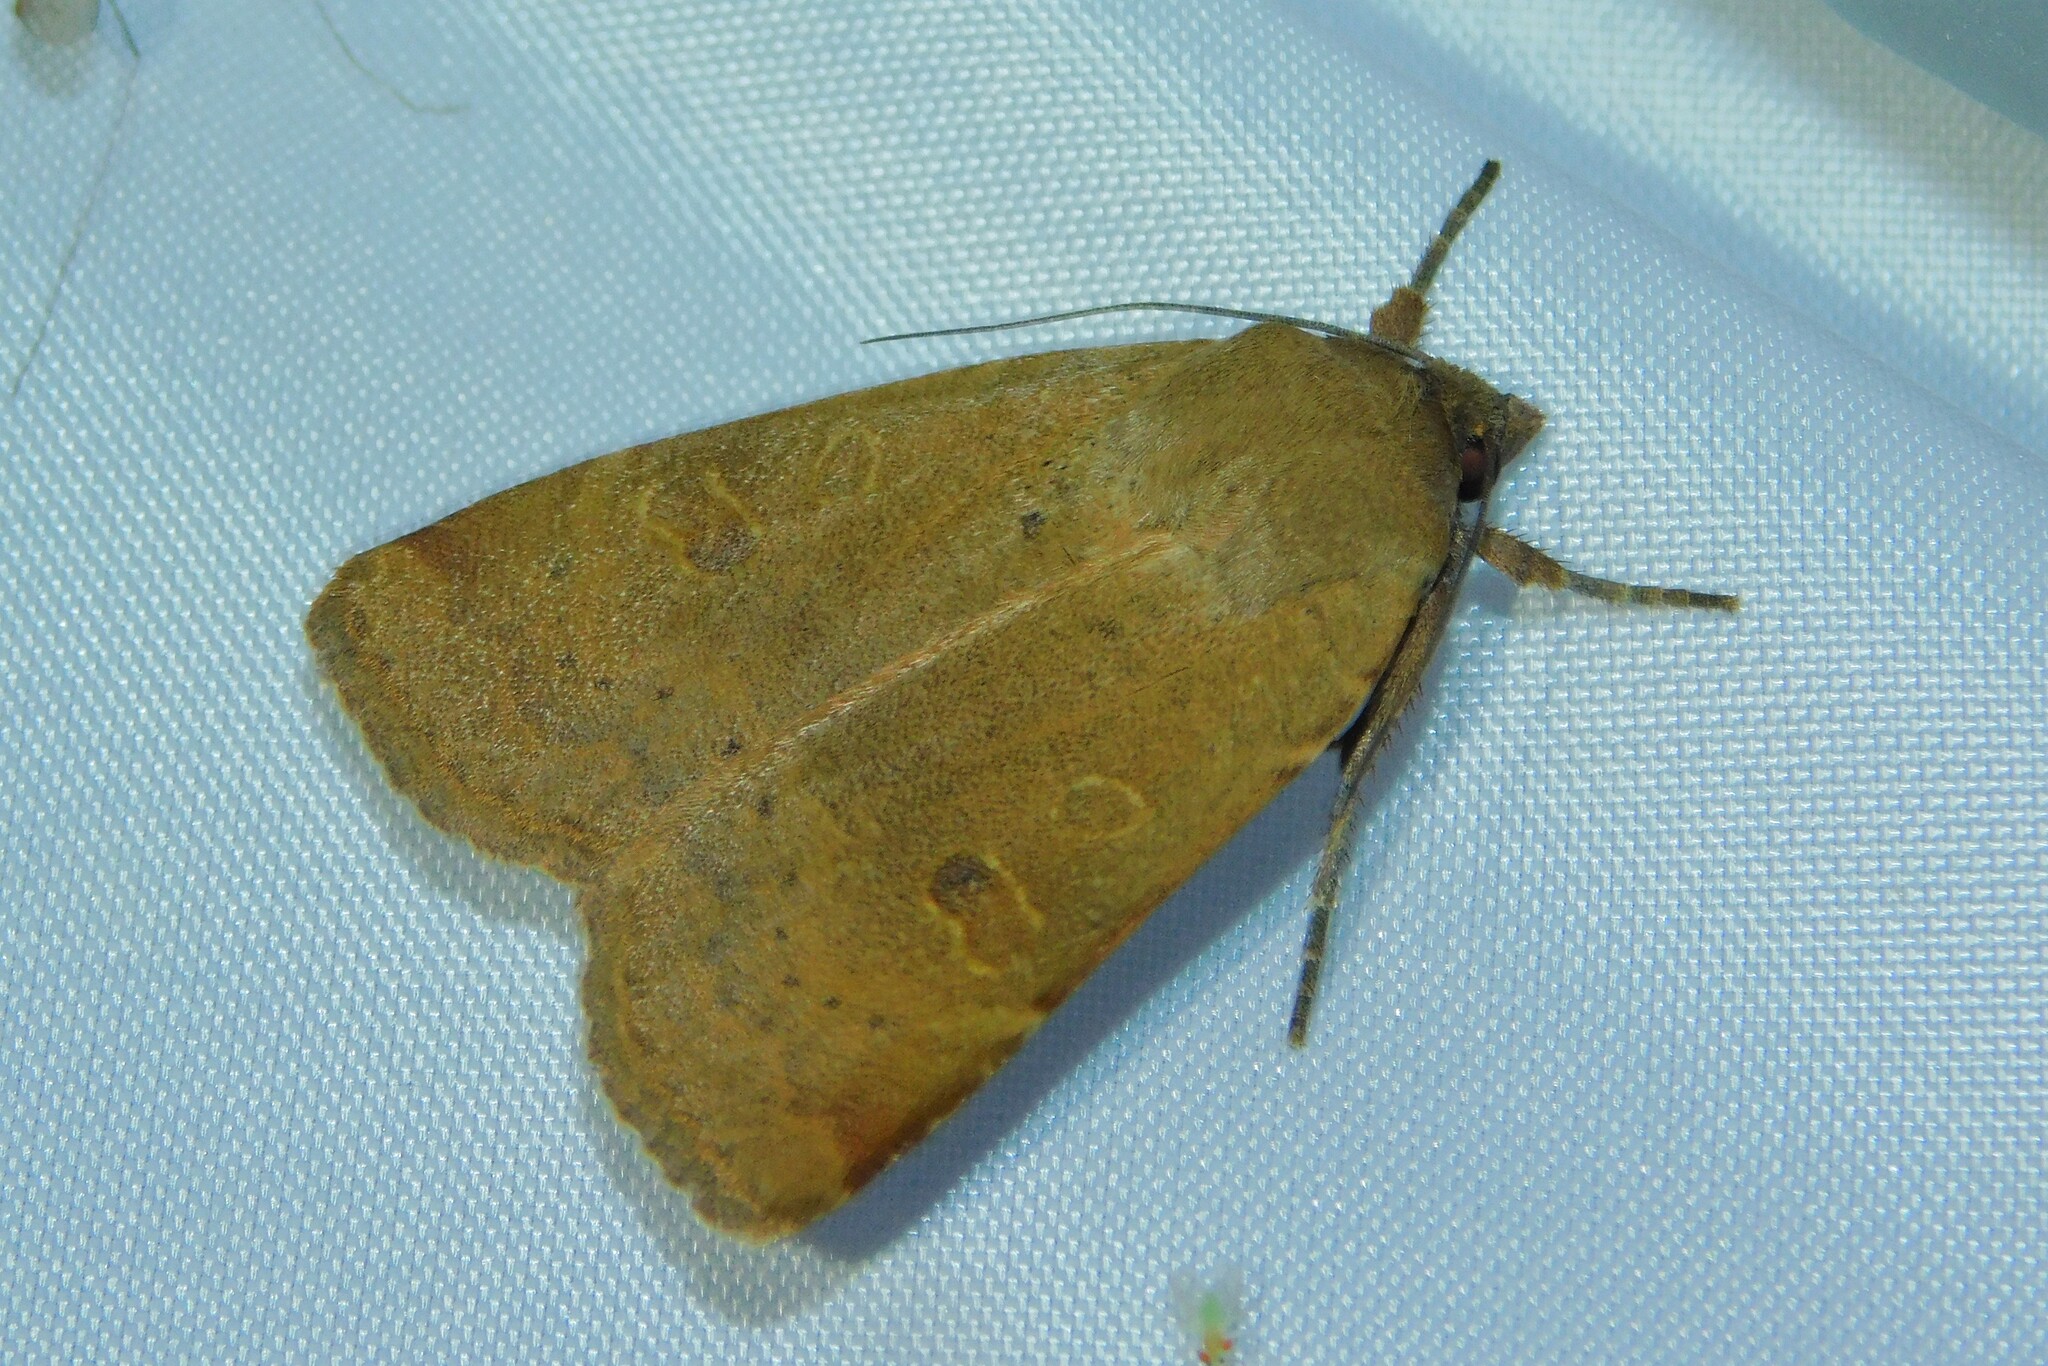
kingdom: Animalia
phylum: Arthropoda
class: Insecta
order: Lepidoptera
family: Noctuidae
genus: Noctua
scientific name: Noctua comes
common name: Lesser yellow underwing
